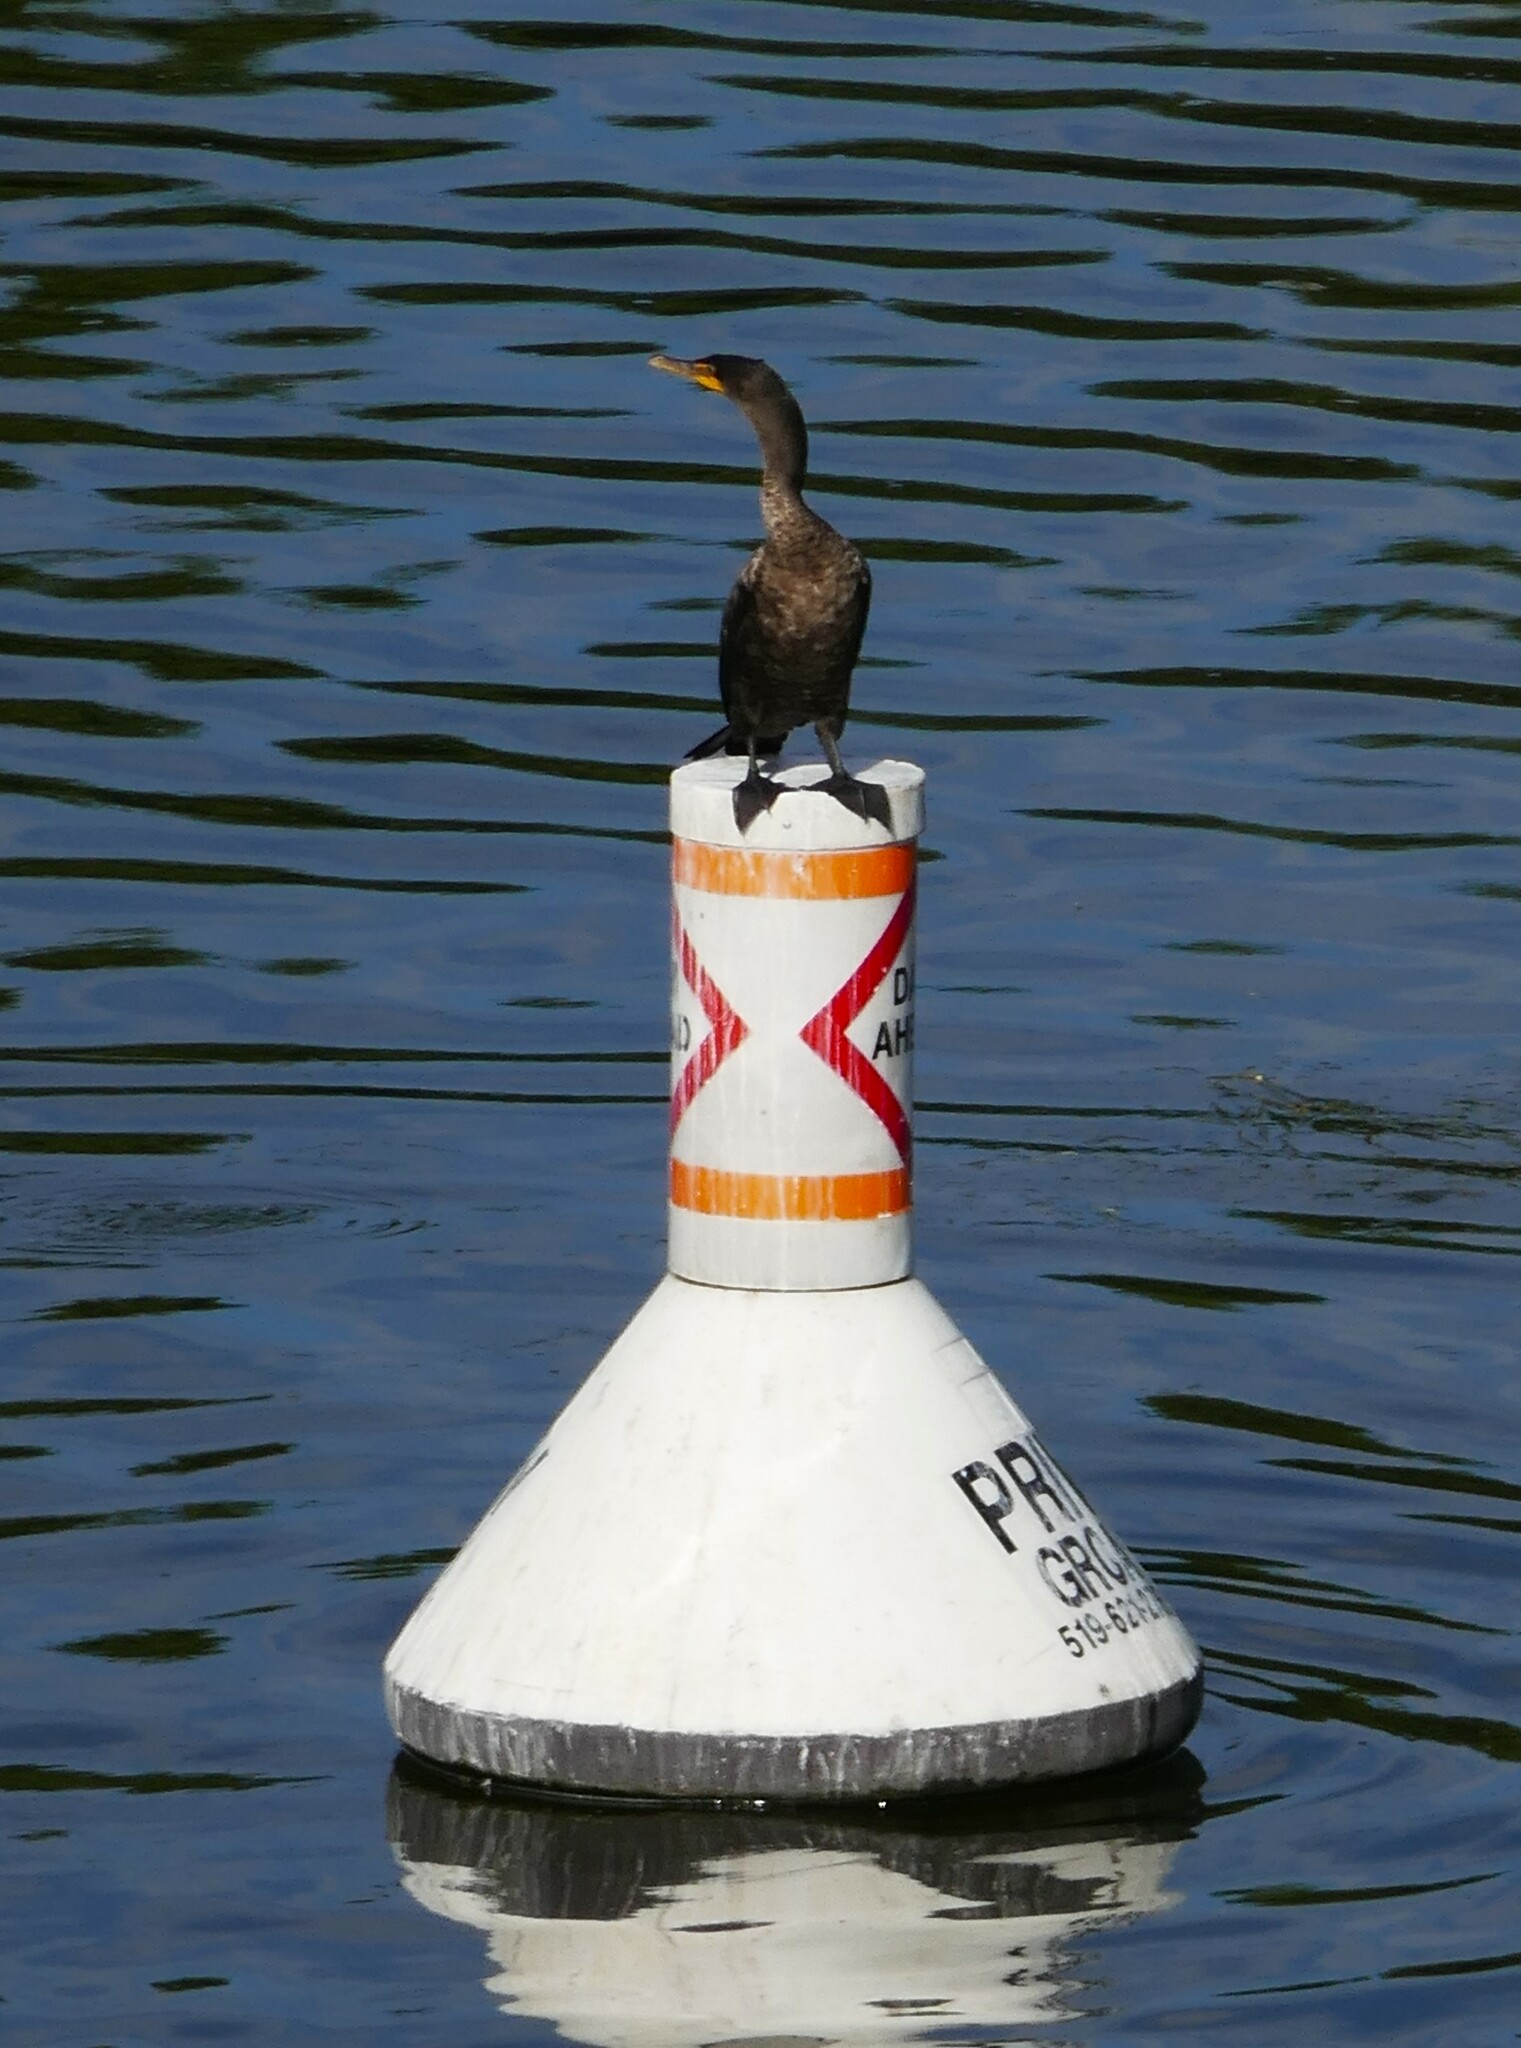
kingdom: Animalia
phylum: Chordata
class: Aves
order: Suliformes
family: Phalacrocoracidae
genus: Phalacrocorax
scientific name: Phalacrocorax auritus
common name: Double-crested cormorant
